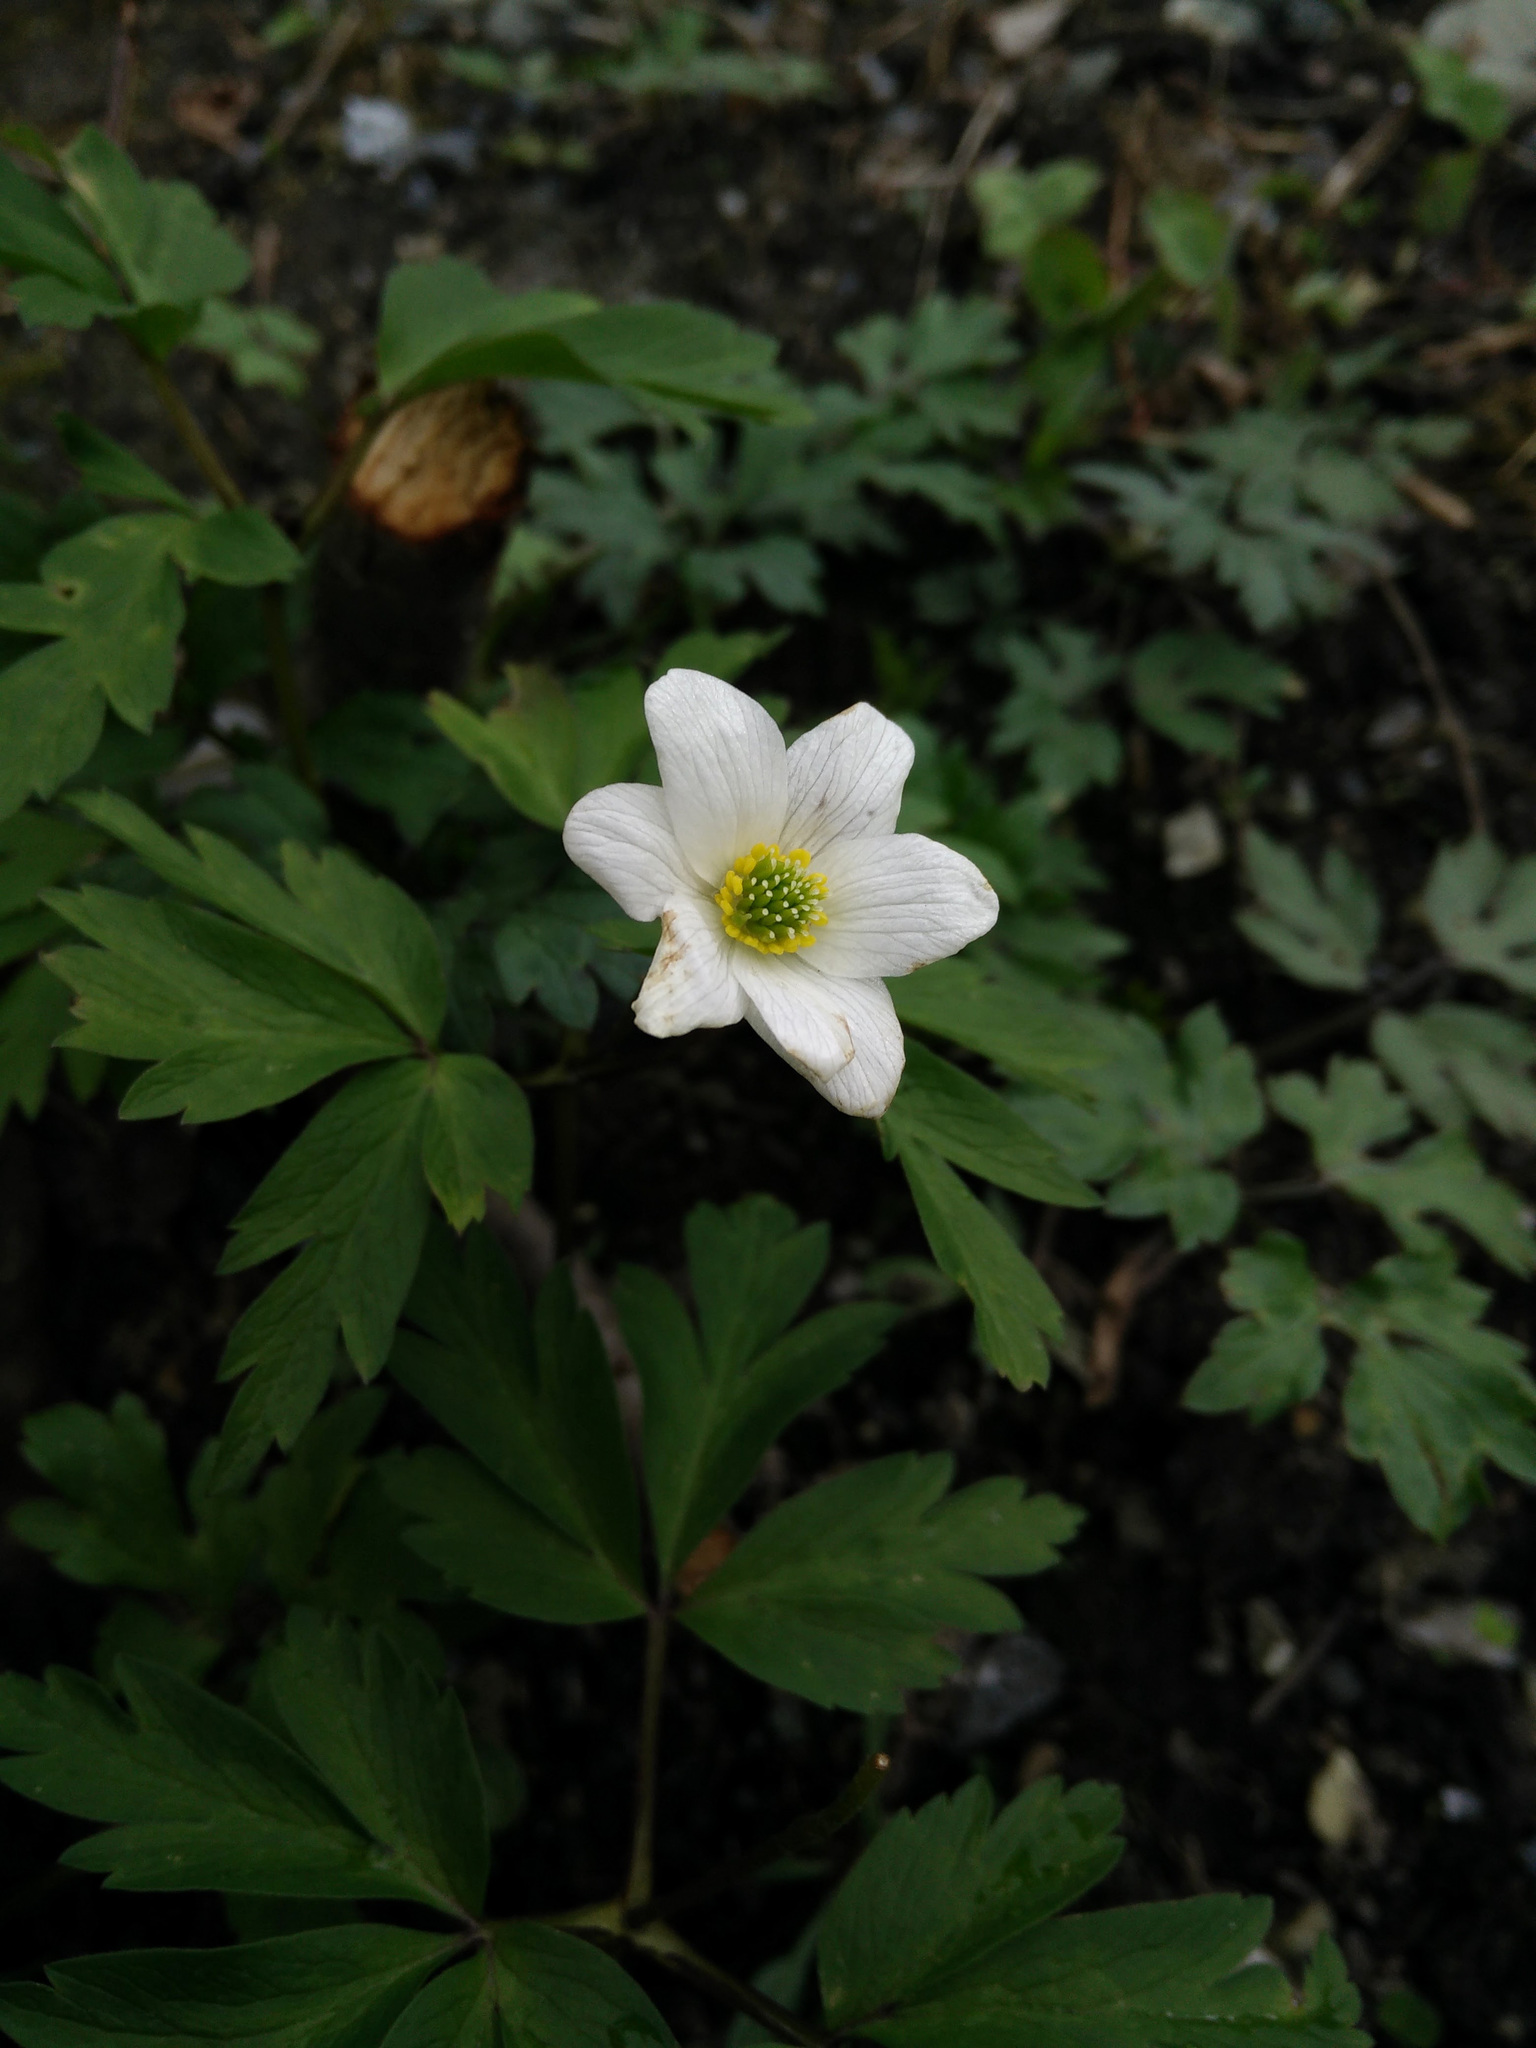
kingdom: Plantae
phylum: Tracheophyta
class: Magnoliopsida
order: Ranunculales
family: Ranunculaceae
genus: Anemone
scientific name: Anemone nemorosa
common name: Wood anemone
